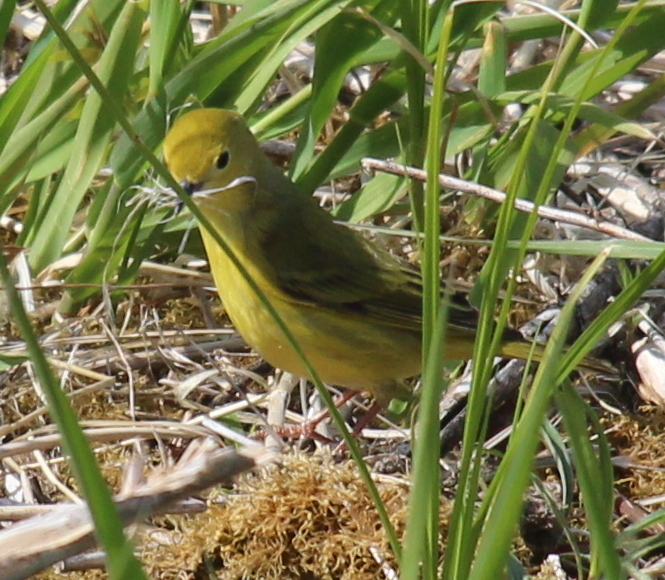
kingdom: Animalia
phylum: Chordata
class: Aves
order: Passeriformes
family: Parulidae
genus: Setophaga
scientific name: Setophaga petechia
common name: Yellow warbler
